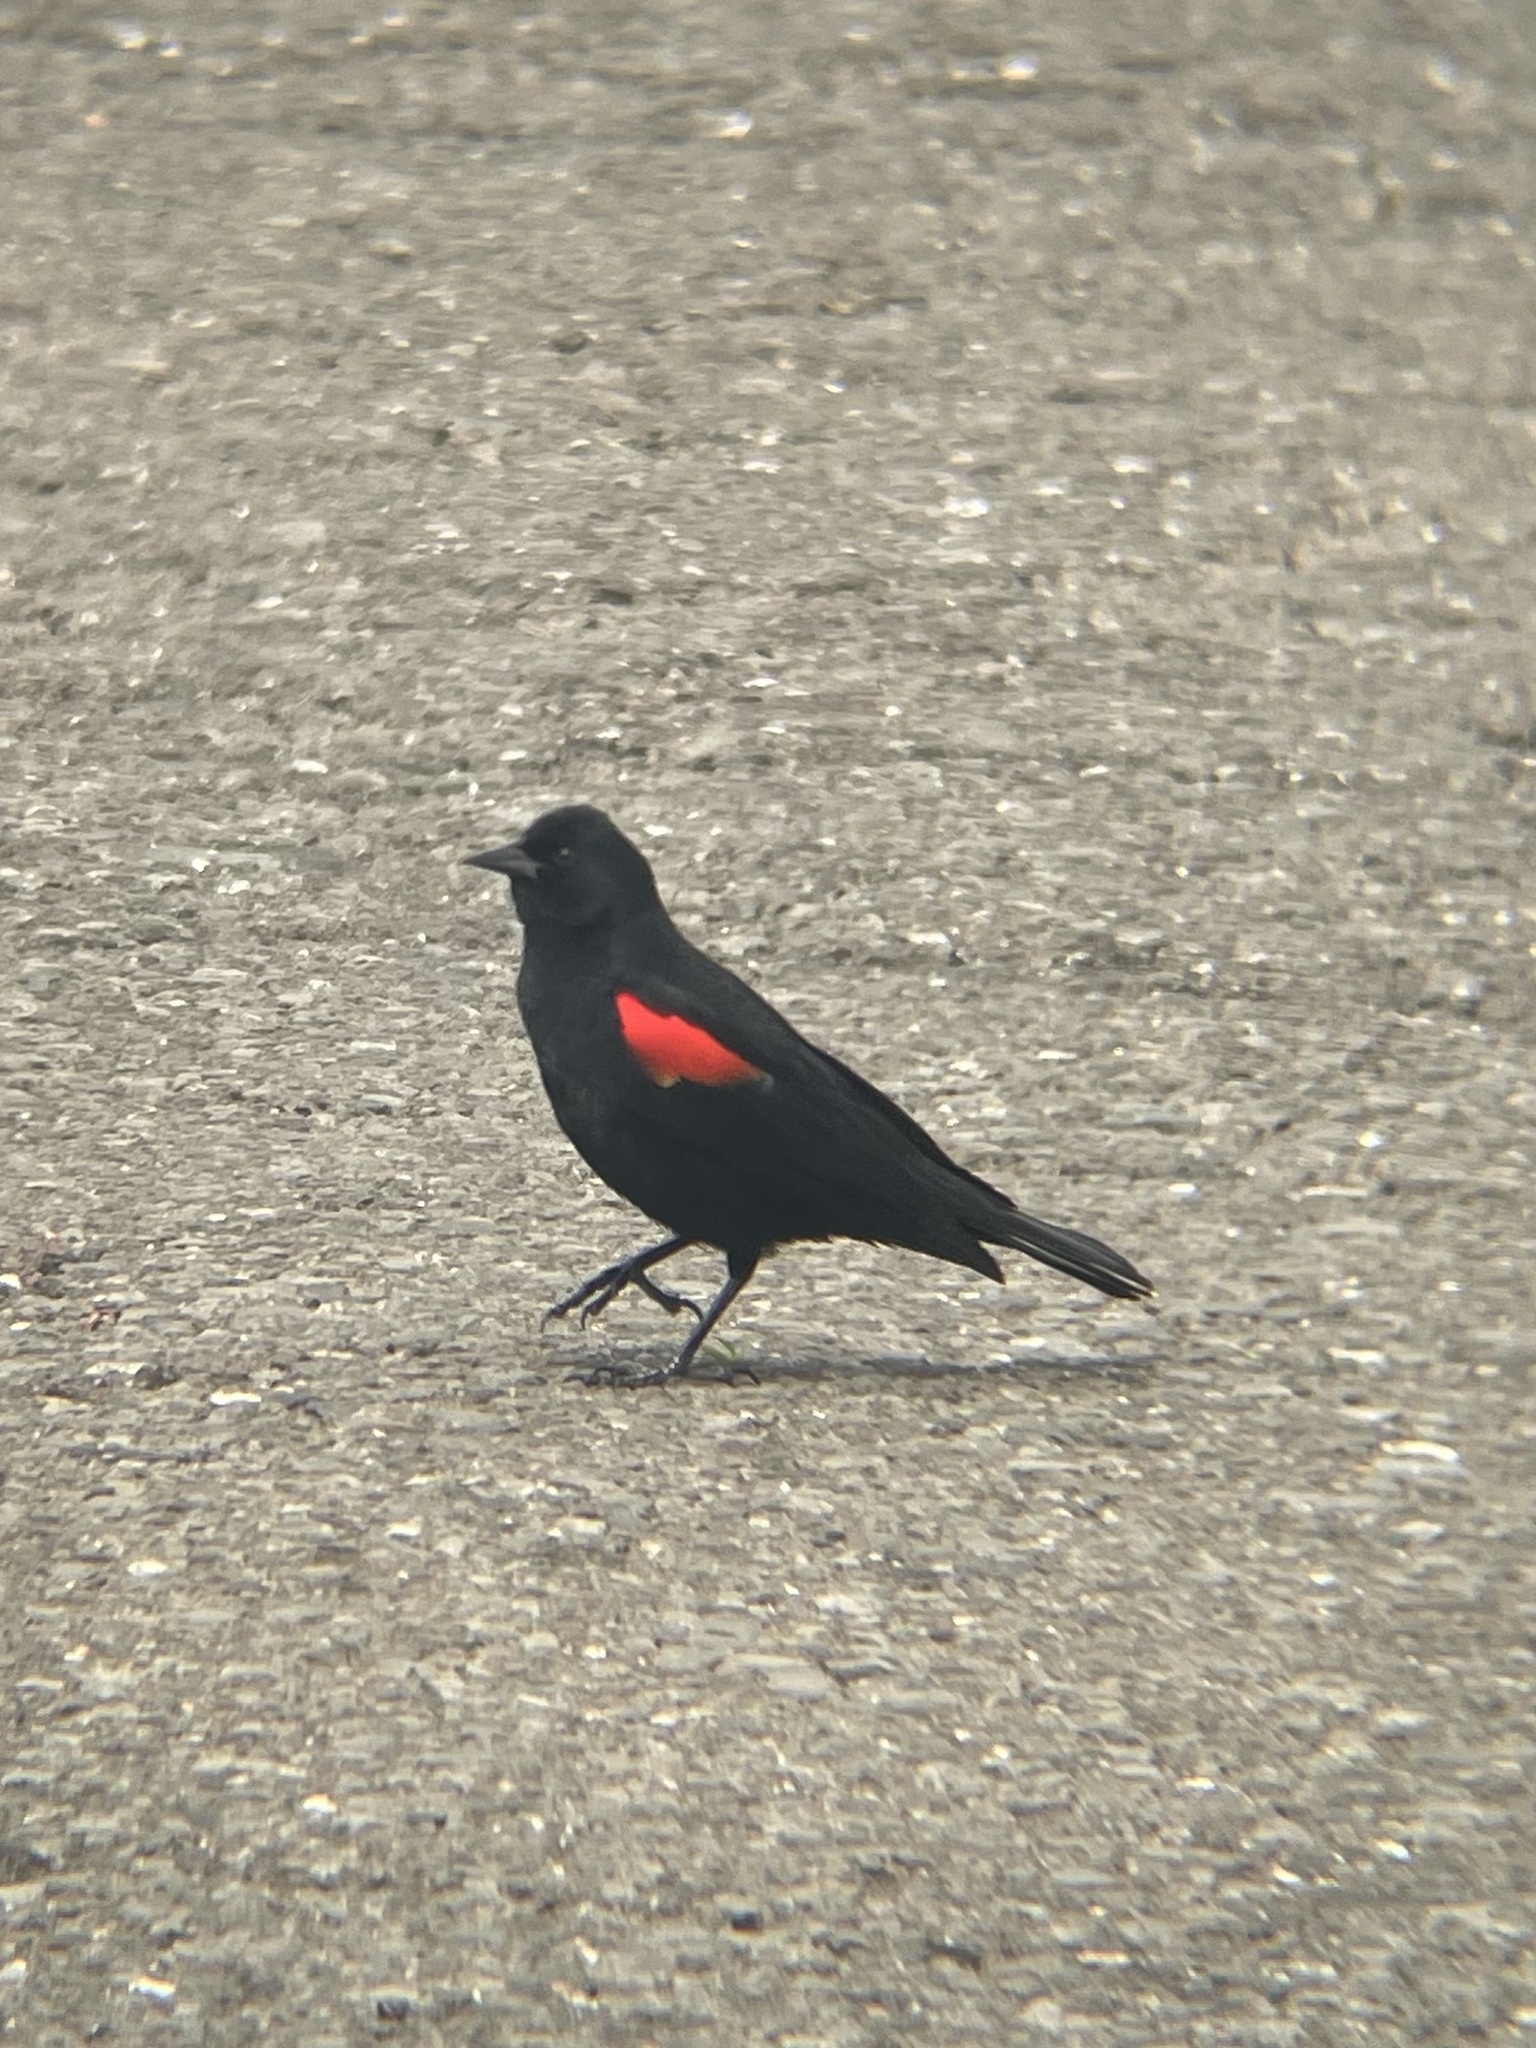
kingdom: Animalia
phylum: Chordata
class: Aves
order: Passeriformes
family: Icteridae
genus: Agelaius
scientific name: Agelaius phoeniceus
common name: Red-winged blackbird
